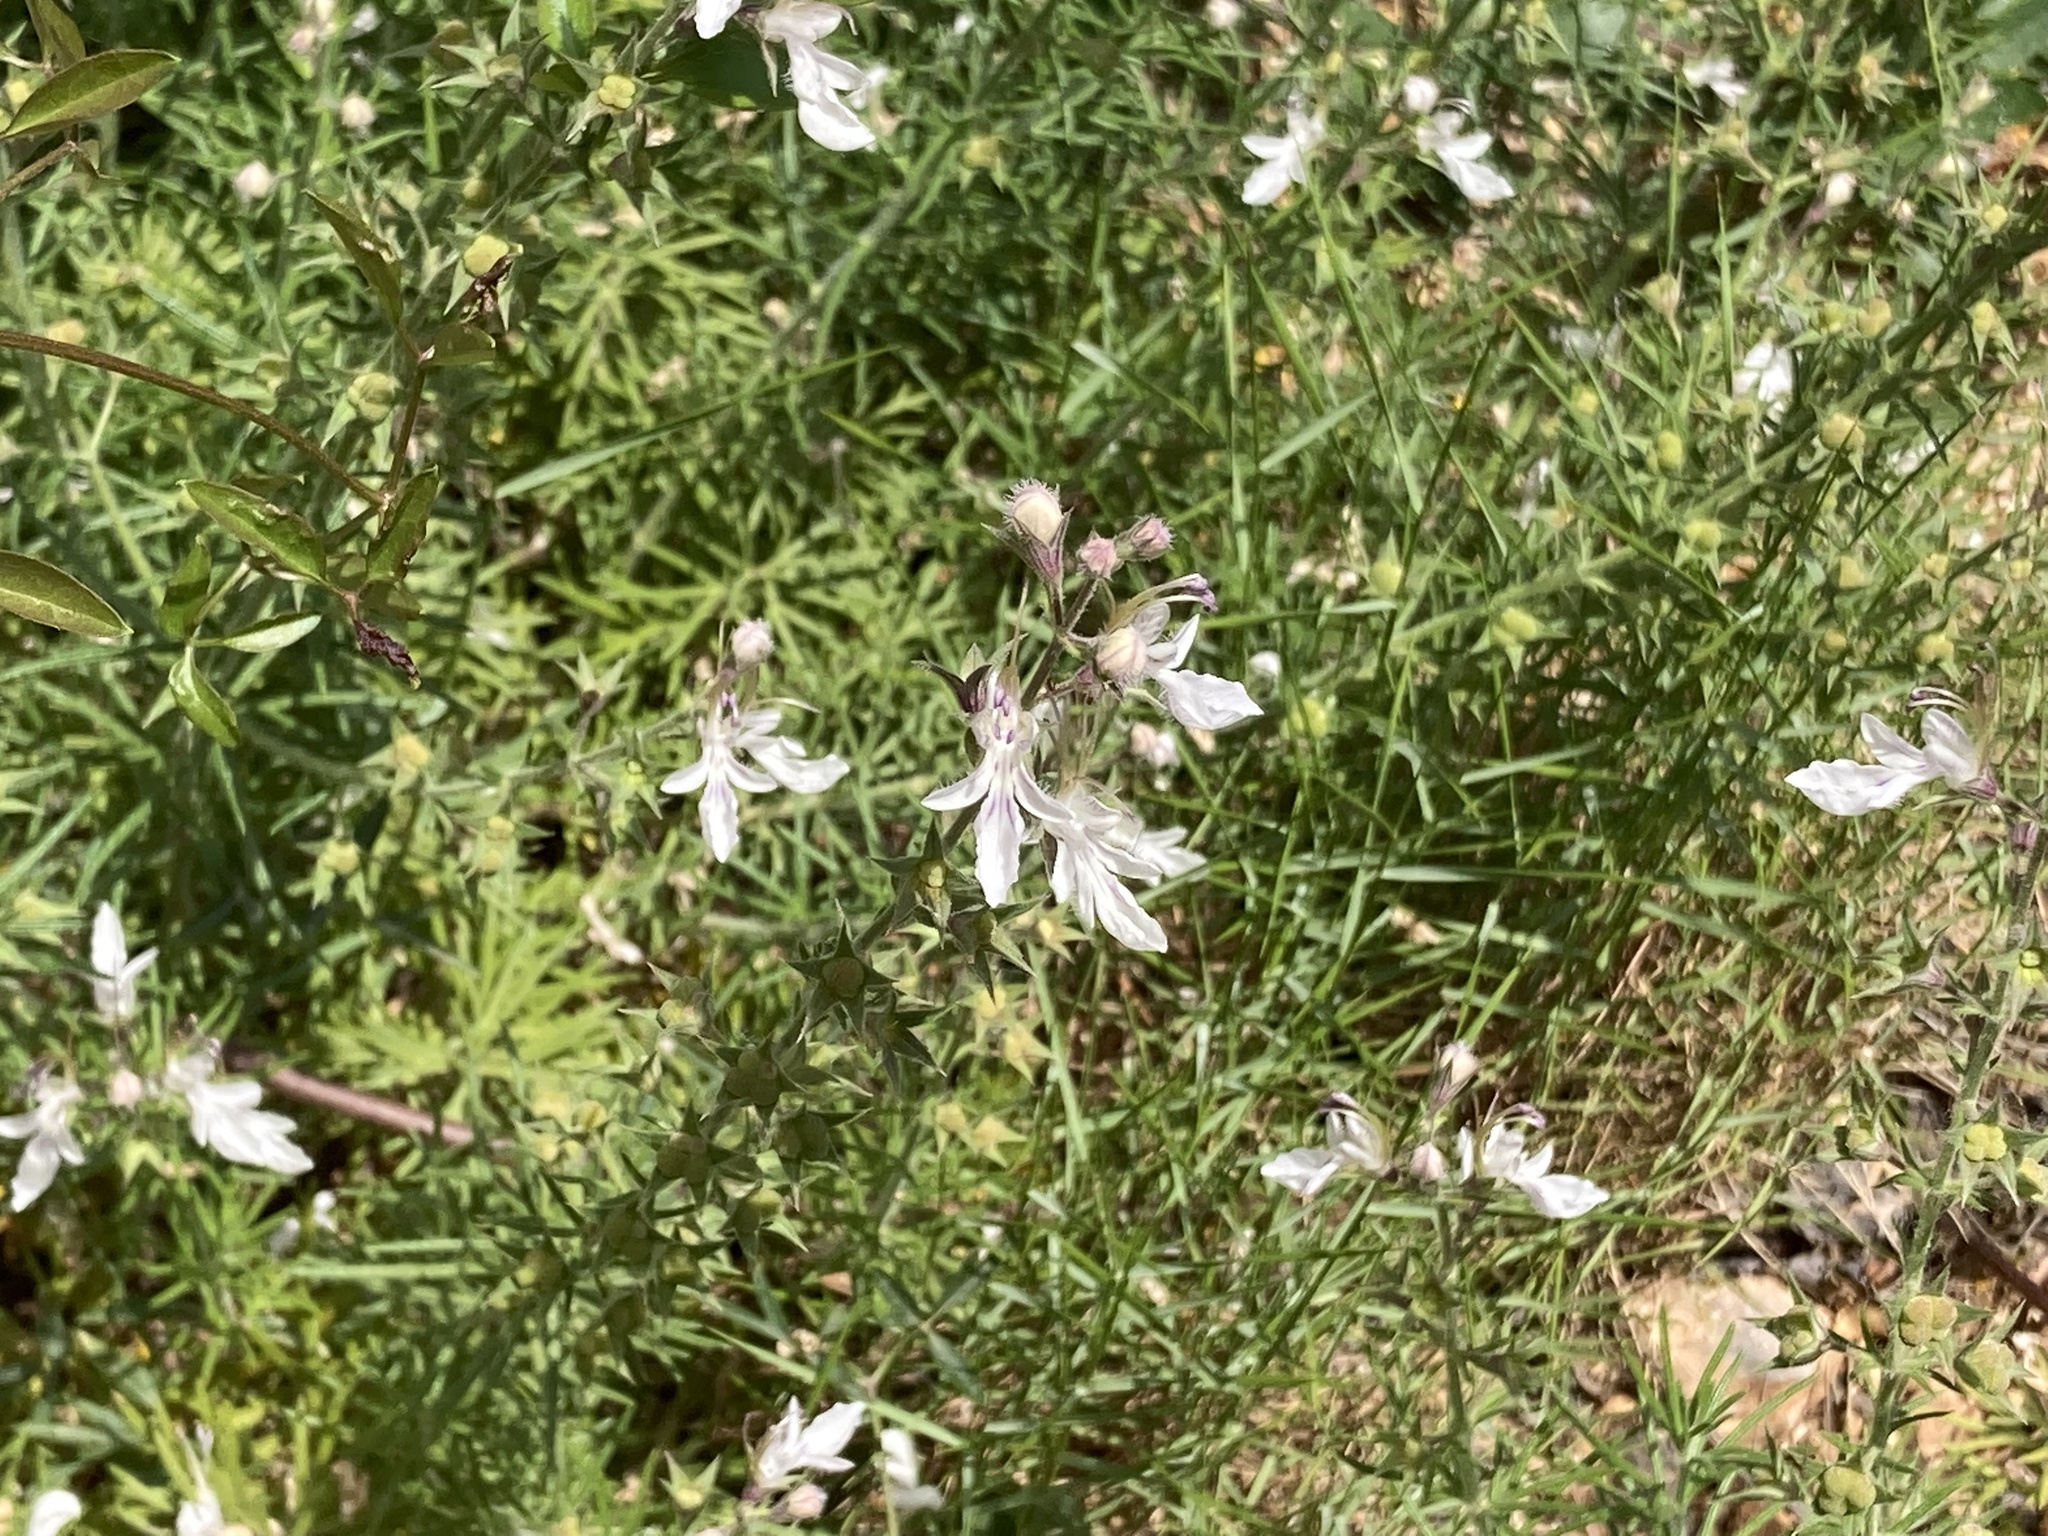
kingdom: Plantae
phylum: Tracheophyta
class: Magnoliopsida
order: Lamiales
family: Lamiaceae
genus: Teucrium
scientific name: Teucrium pseudochamaepitys
